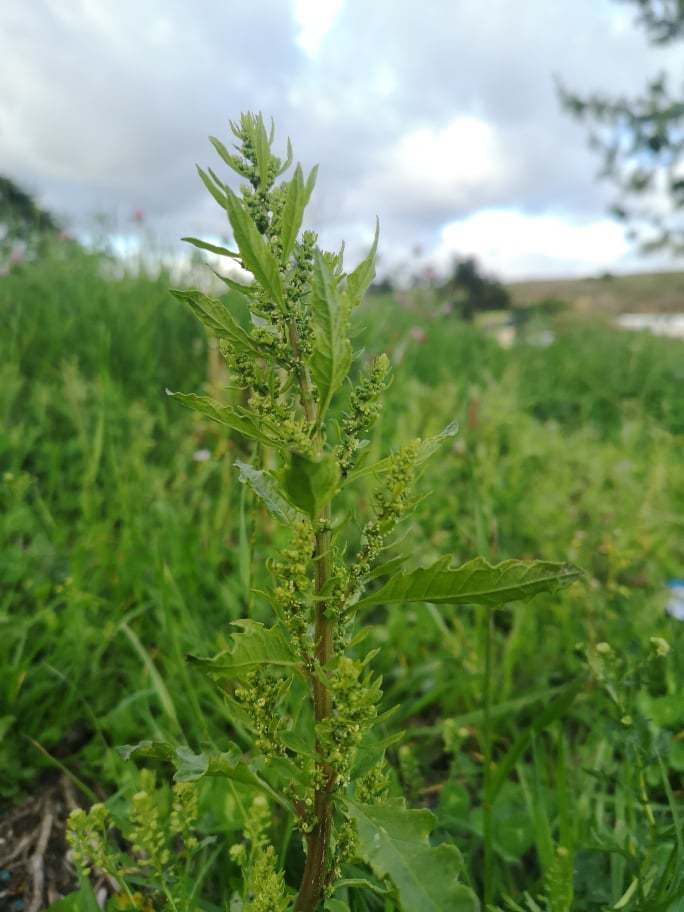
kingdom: Plantae
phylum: Tracheophyta
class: Magnoliopsida
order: Caryophyllales
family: Amaranthaceae
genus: Dysphania
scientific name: Dysphania ambrosioides
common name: Wormseed
